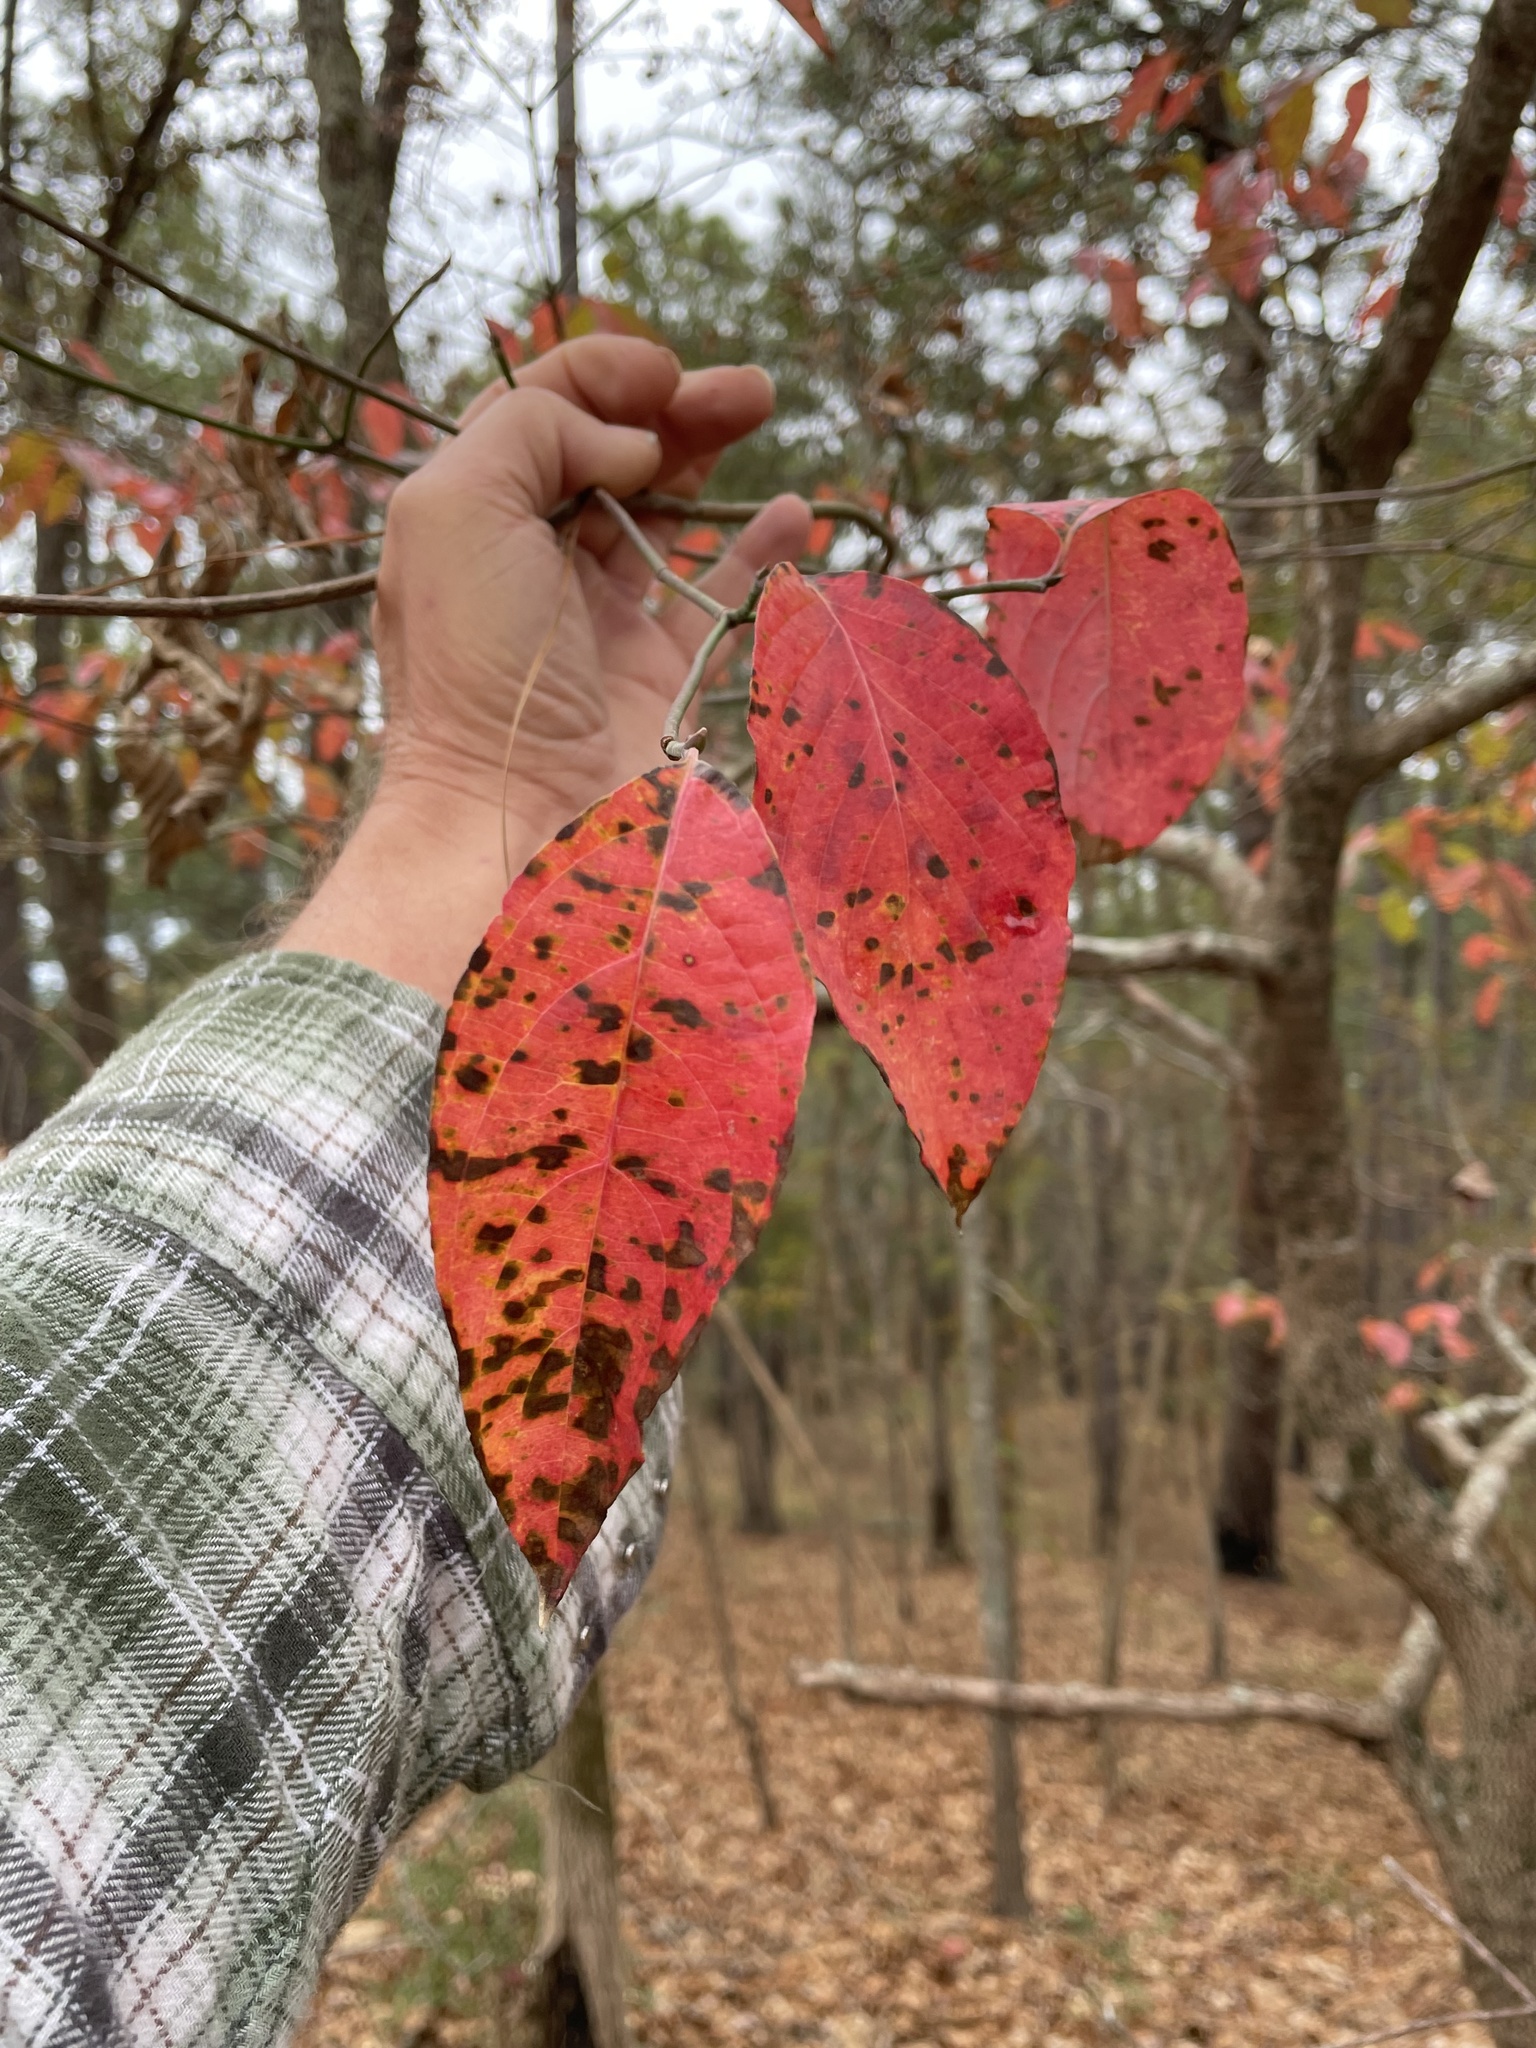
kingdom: Plantae
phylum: Tracheophyta
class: Magnoliopsida
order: Cornales
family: Cornaceae
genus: Cornus
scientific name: Cornus florida
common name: Flowering dogwood
